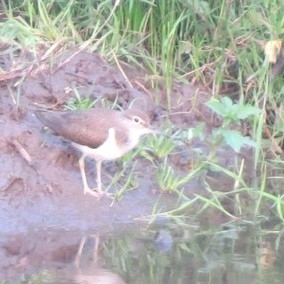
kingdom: Animalia
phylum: Chordata
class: Aves
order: Charadriiformes
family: Scolopacidae
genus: Actitis
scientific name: Actitis hypoleucos
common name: Common sandpiper
